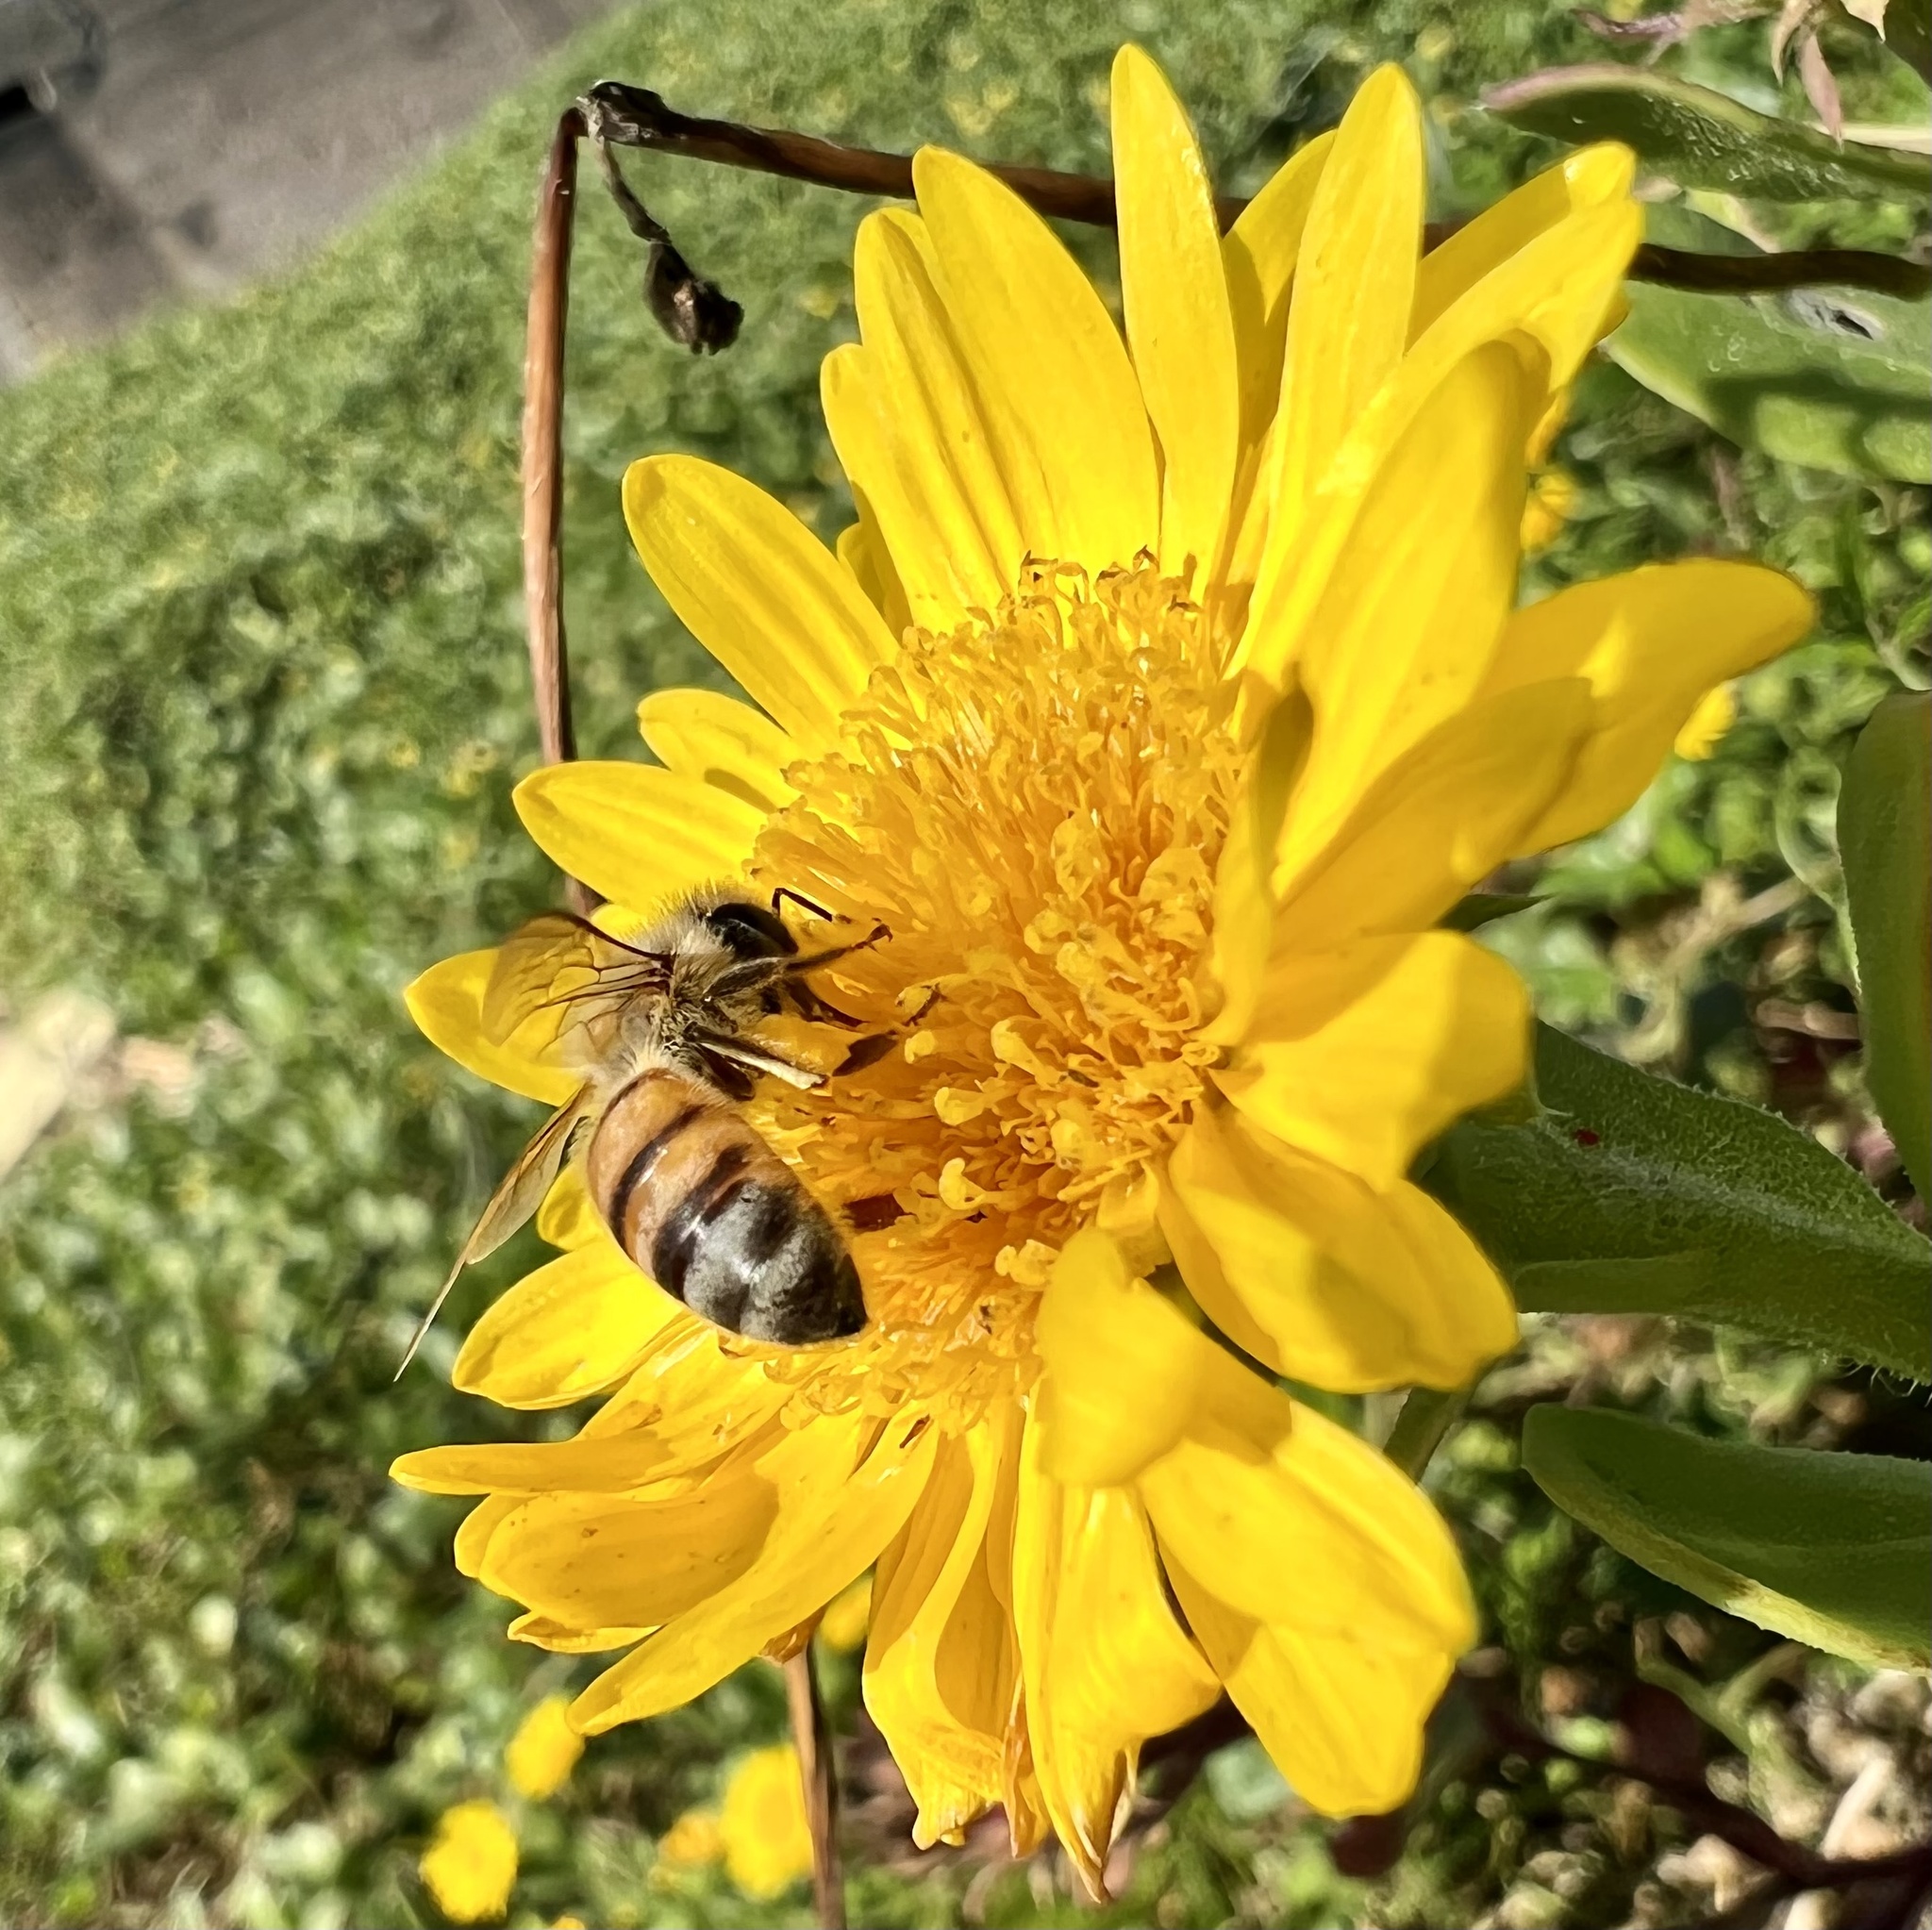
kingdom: Plantae
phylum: Tracheophyta
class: Magnoliopsida
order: Asterales
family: Asteraceae
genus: Rayjacksonia
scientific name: Rayjacksonia phyllocephala
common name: Gulf coast camphor daisy
